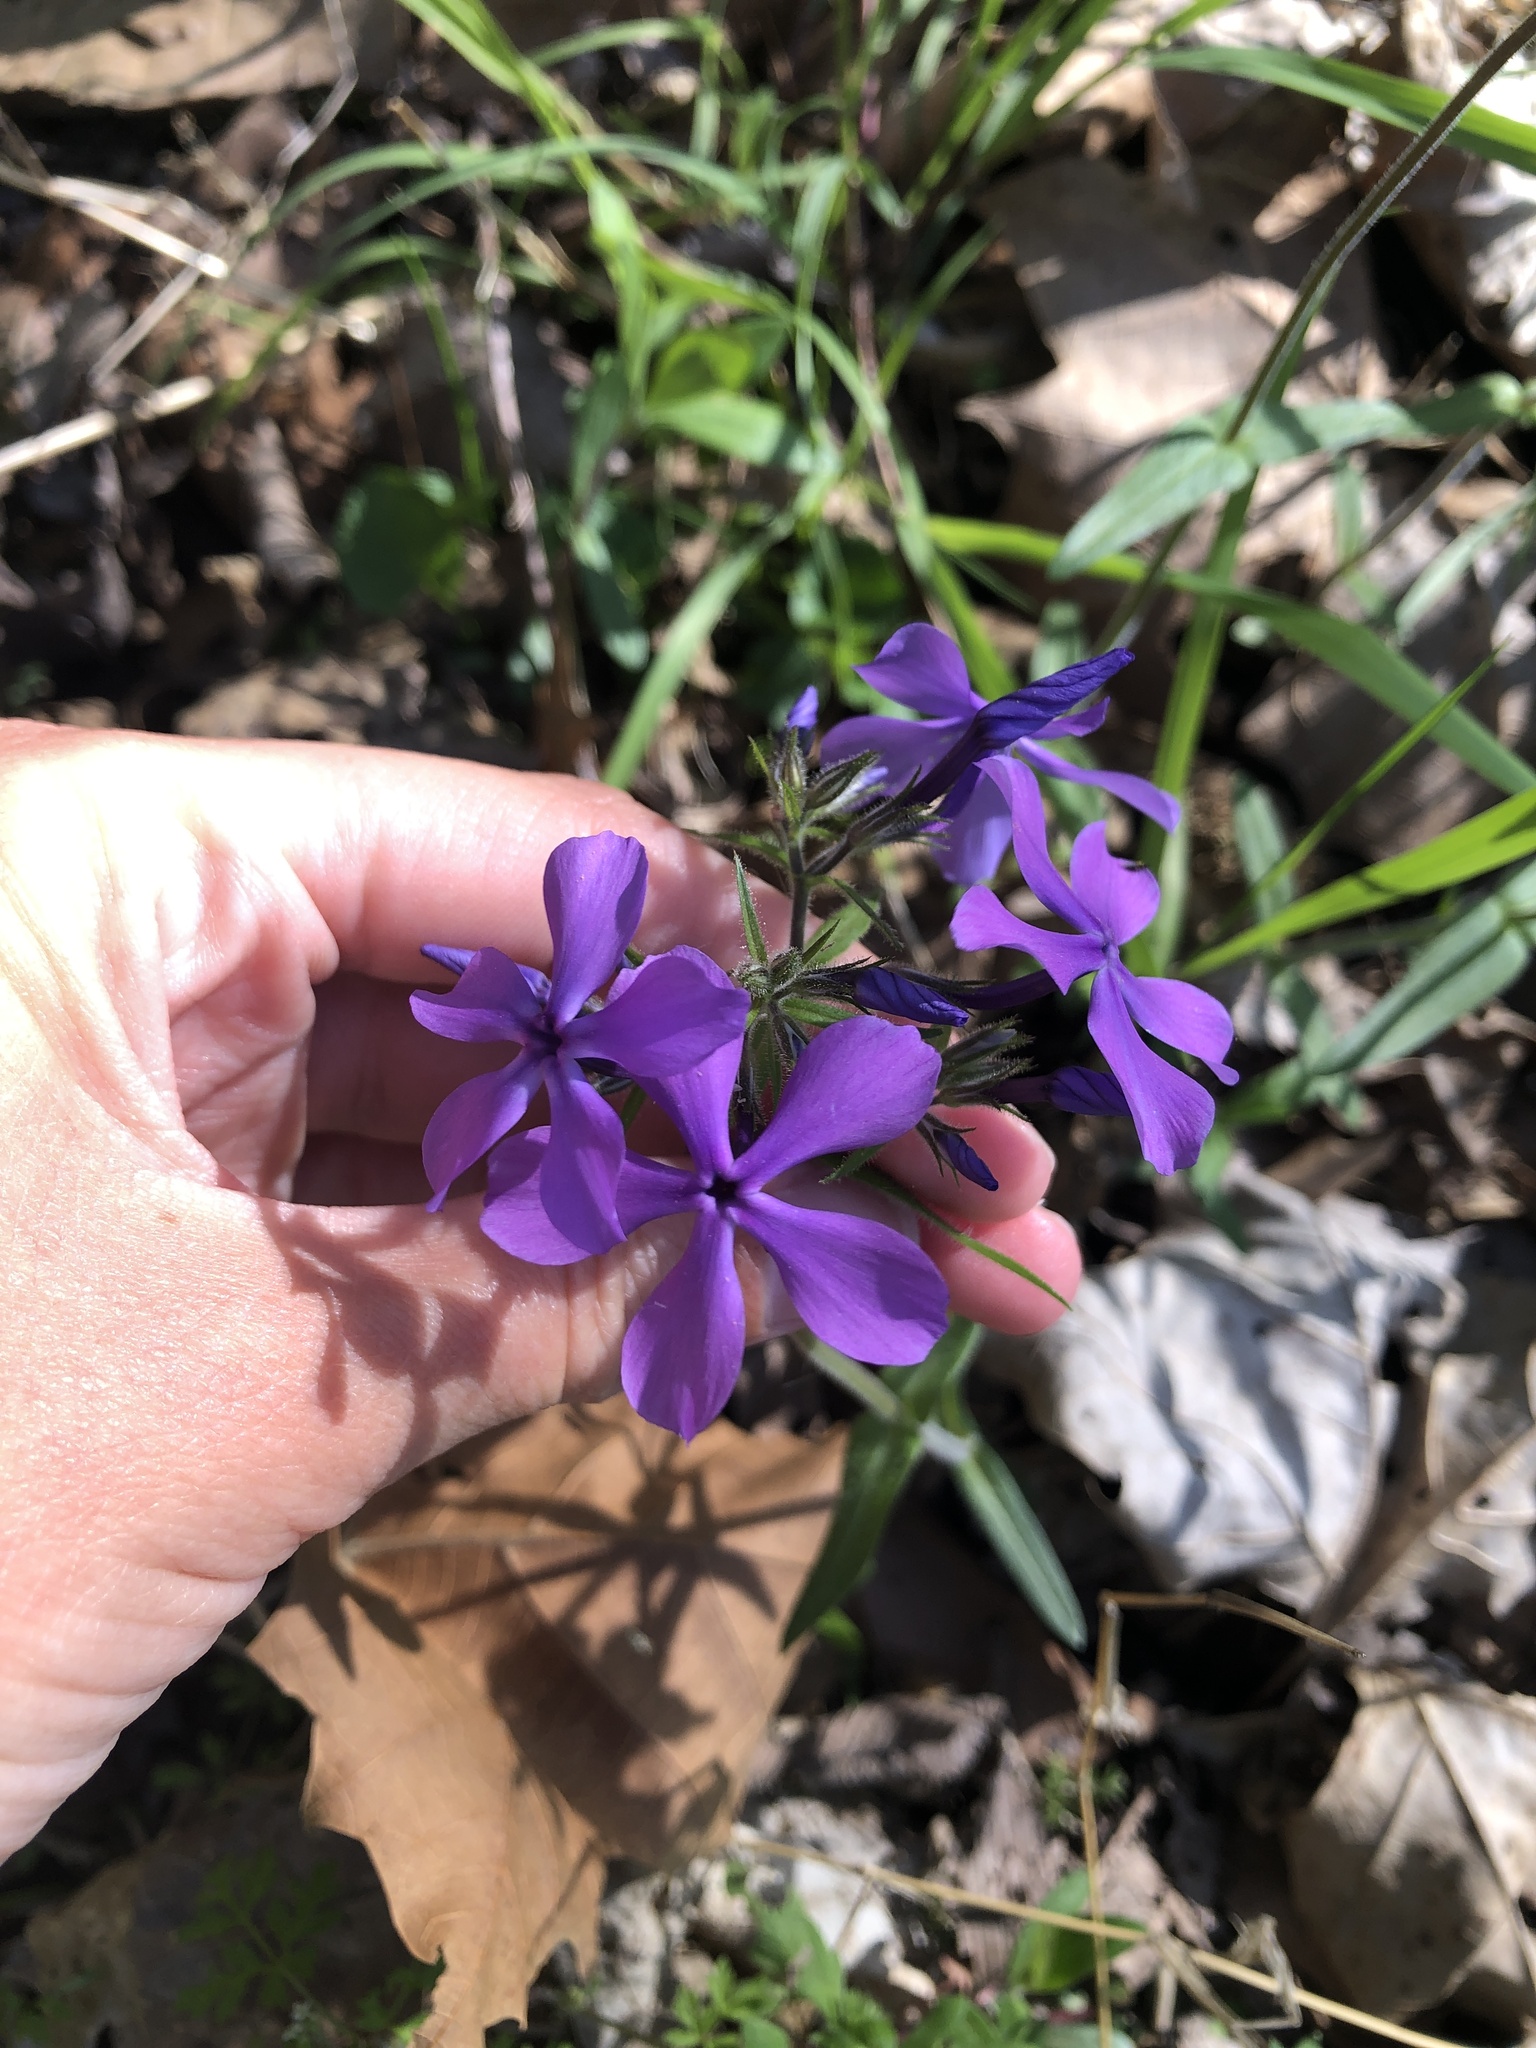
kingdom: Plantae
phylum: Tracheophyta
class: Magnoliopsida
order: Ericales
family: Polemoniaceae
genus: Phlox
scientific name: Phlox divaricata
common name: Blue phlox
